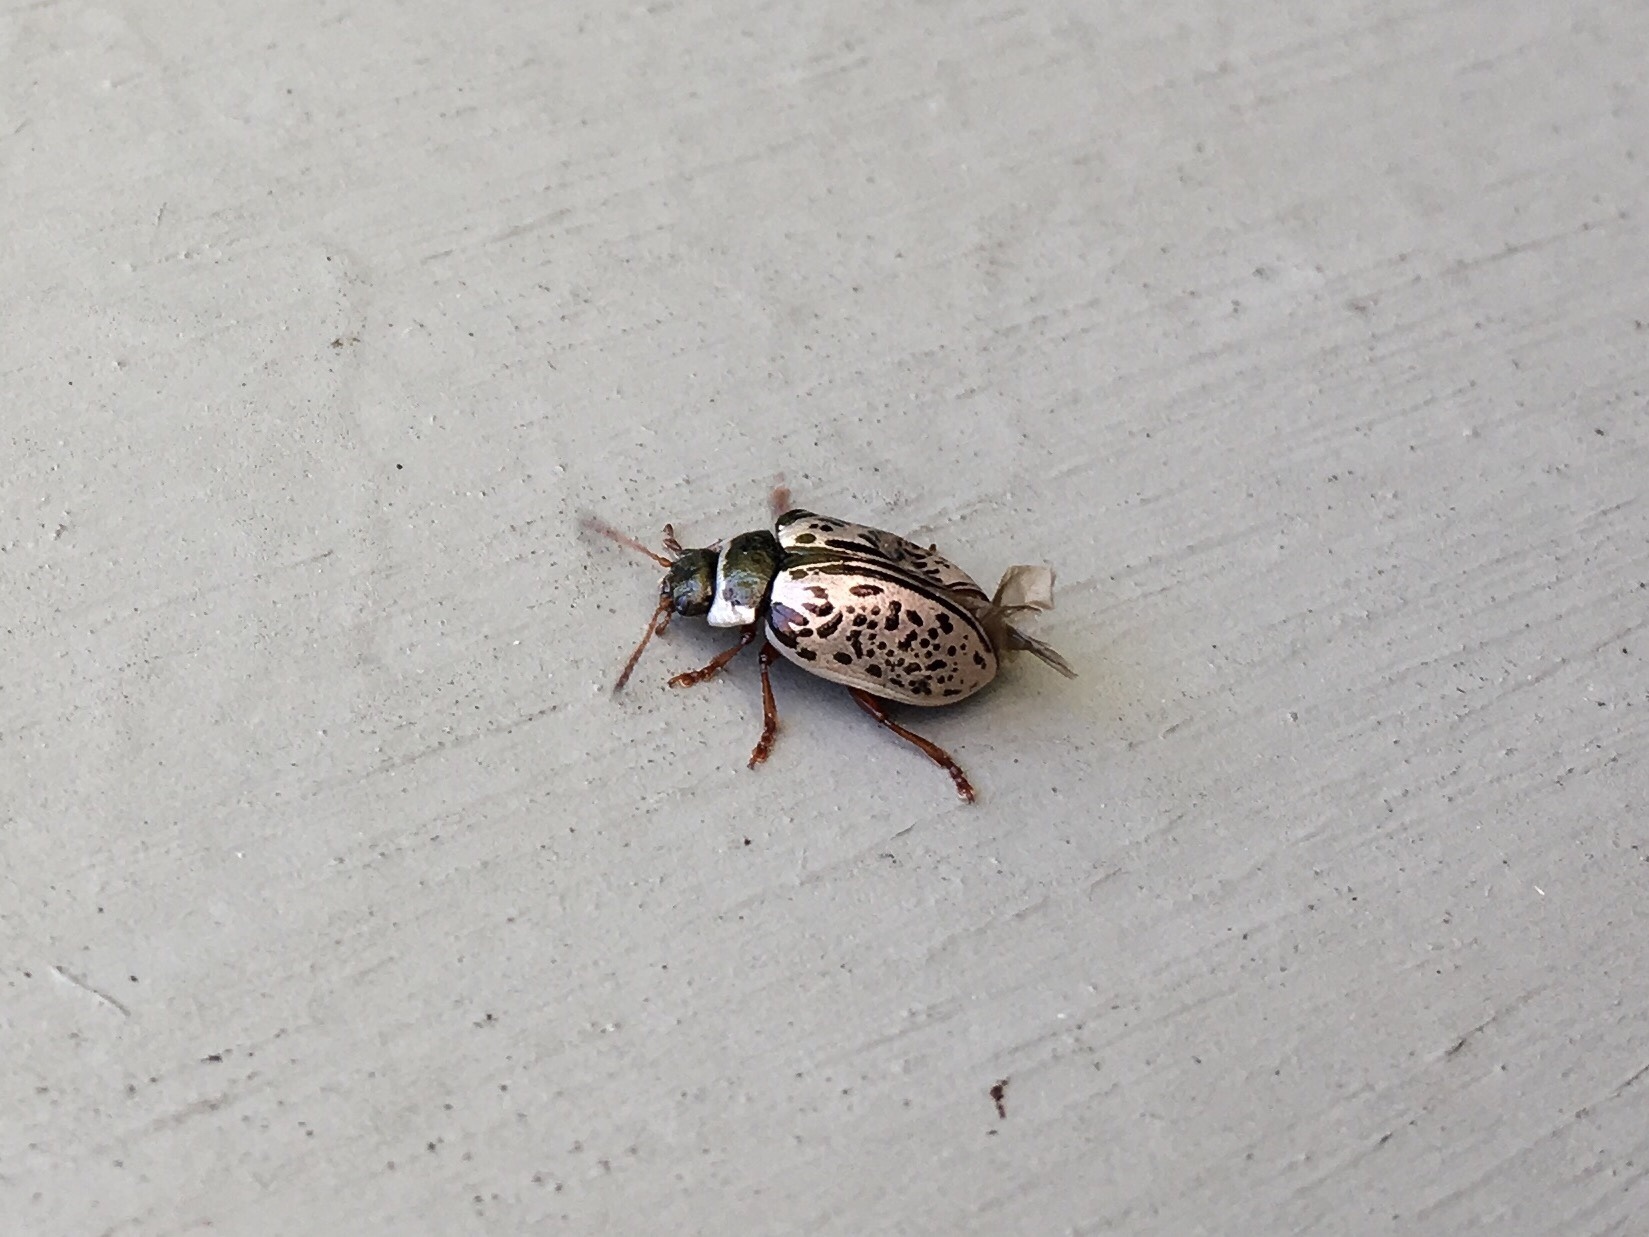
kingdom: Animalia
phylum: Arthropoda
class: Insecta
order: Coleoptera
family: Chrysomelidae
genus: Calligrapha
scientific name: Calligrapha multipunctata
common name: Common willow calligrapher beetle
